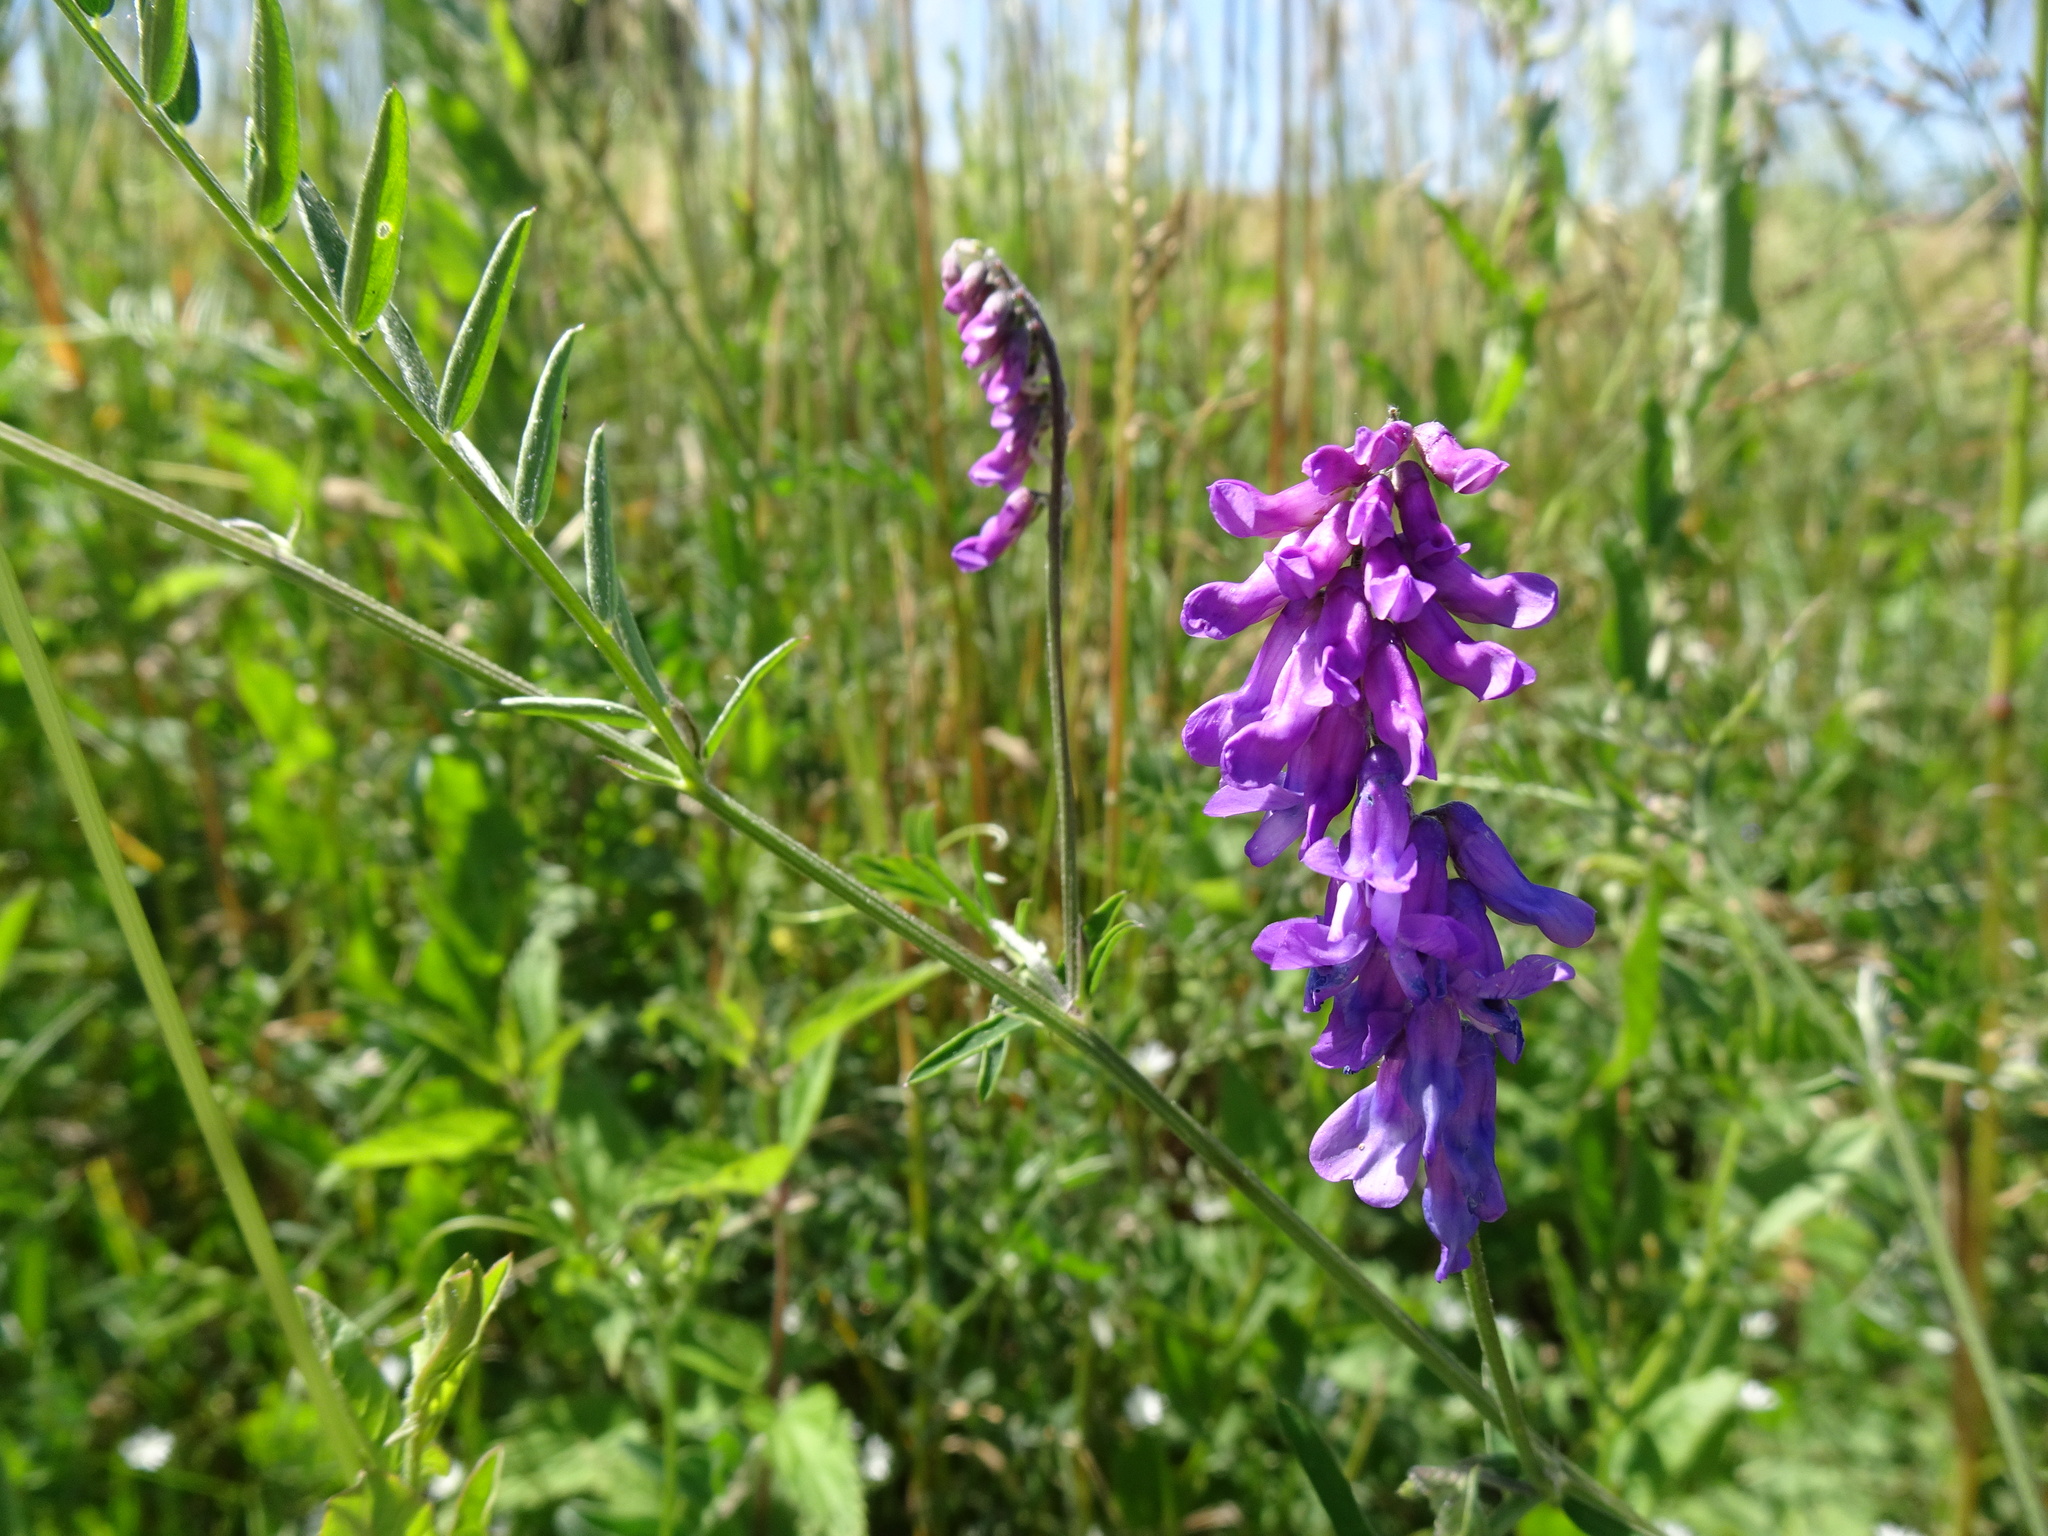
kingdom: Plantae
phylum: Tracheophyta
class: Magnoliopsida
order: Fabales
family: Fabaceae
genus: Vicia
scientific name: Vicia cracca
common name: Bird vetch
